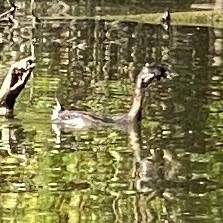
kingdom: Animalia
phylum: Chordata
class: Aves
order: Podicipediformes
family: Podicipedidae
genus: Podilymbus
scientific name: Podilymbus podiceps
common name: Pied-billed grebe
